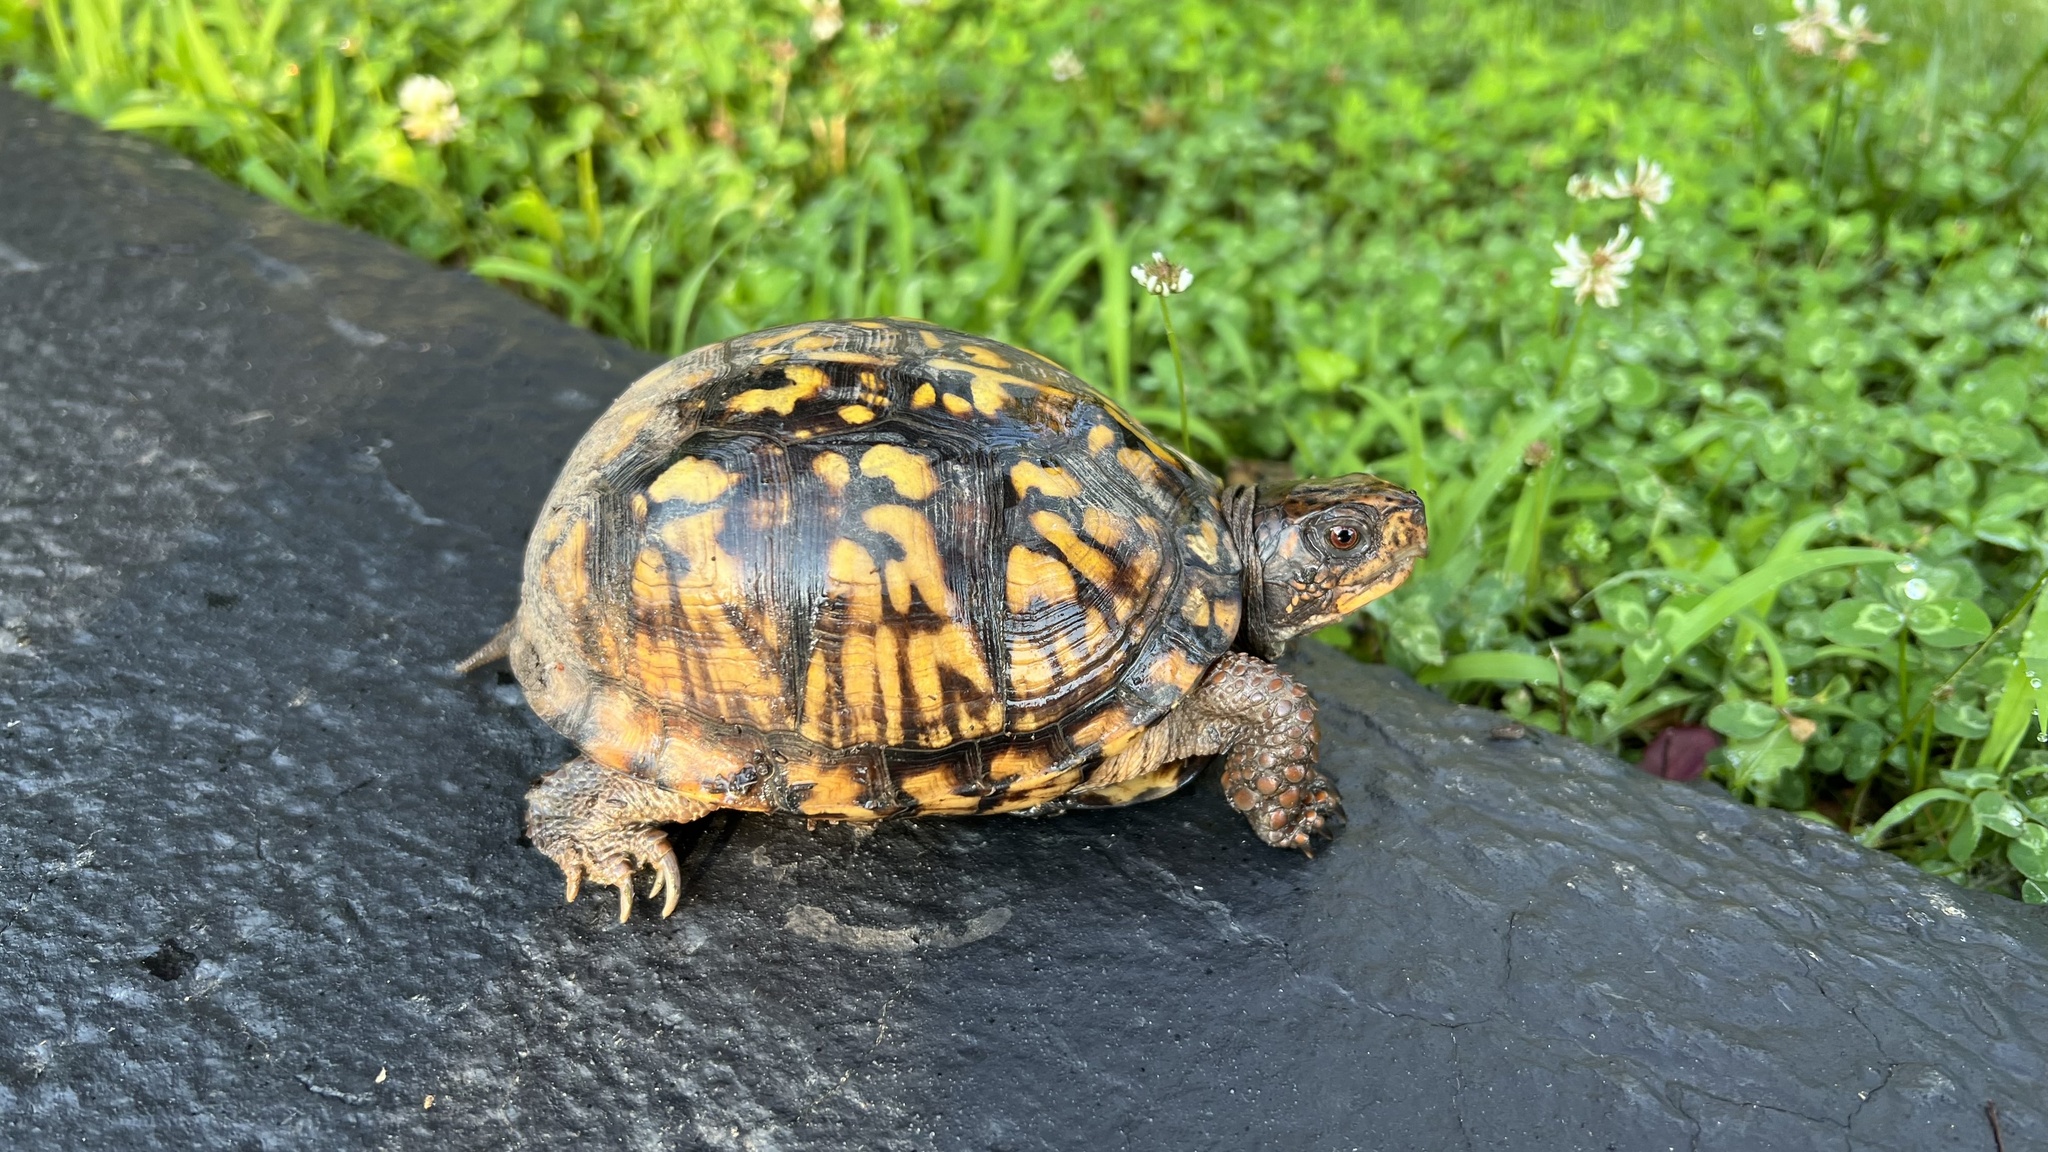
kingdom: Animalia
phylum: Chordata
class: Testudines
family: Emydidae
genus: Terrapene
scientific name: Terrapene carolina
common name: Common box turtle
